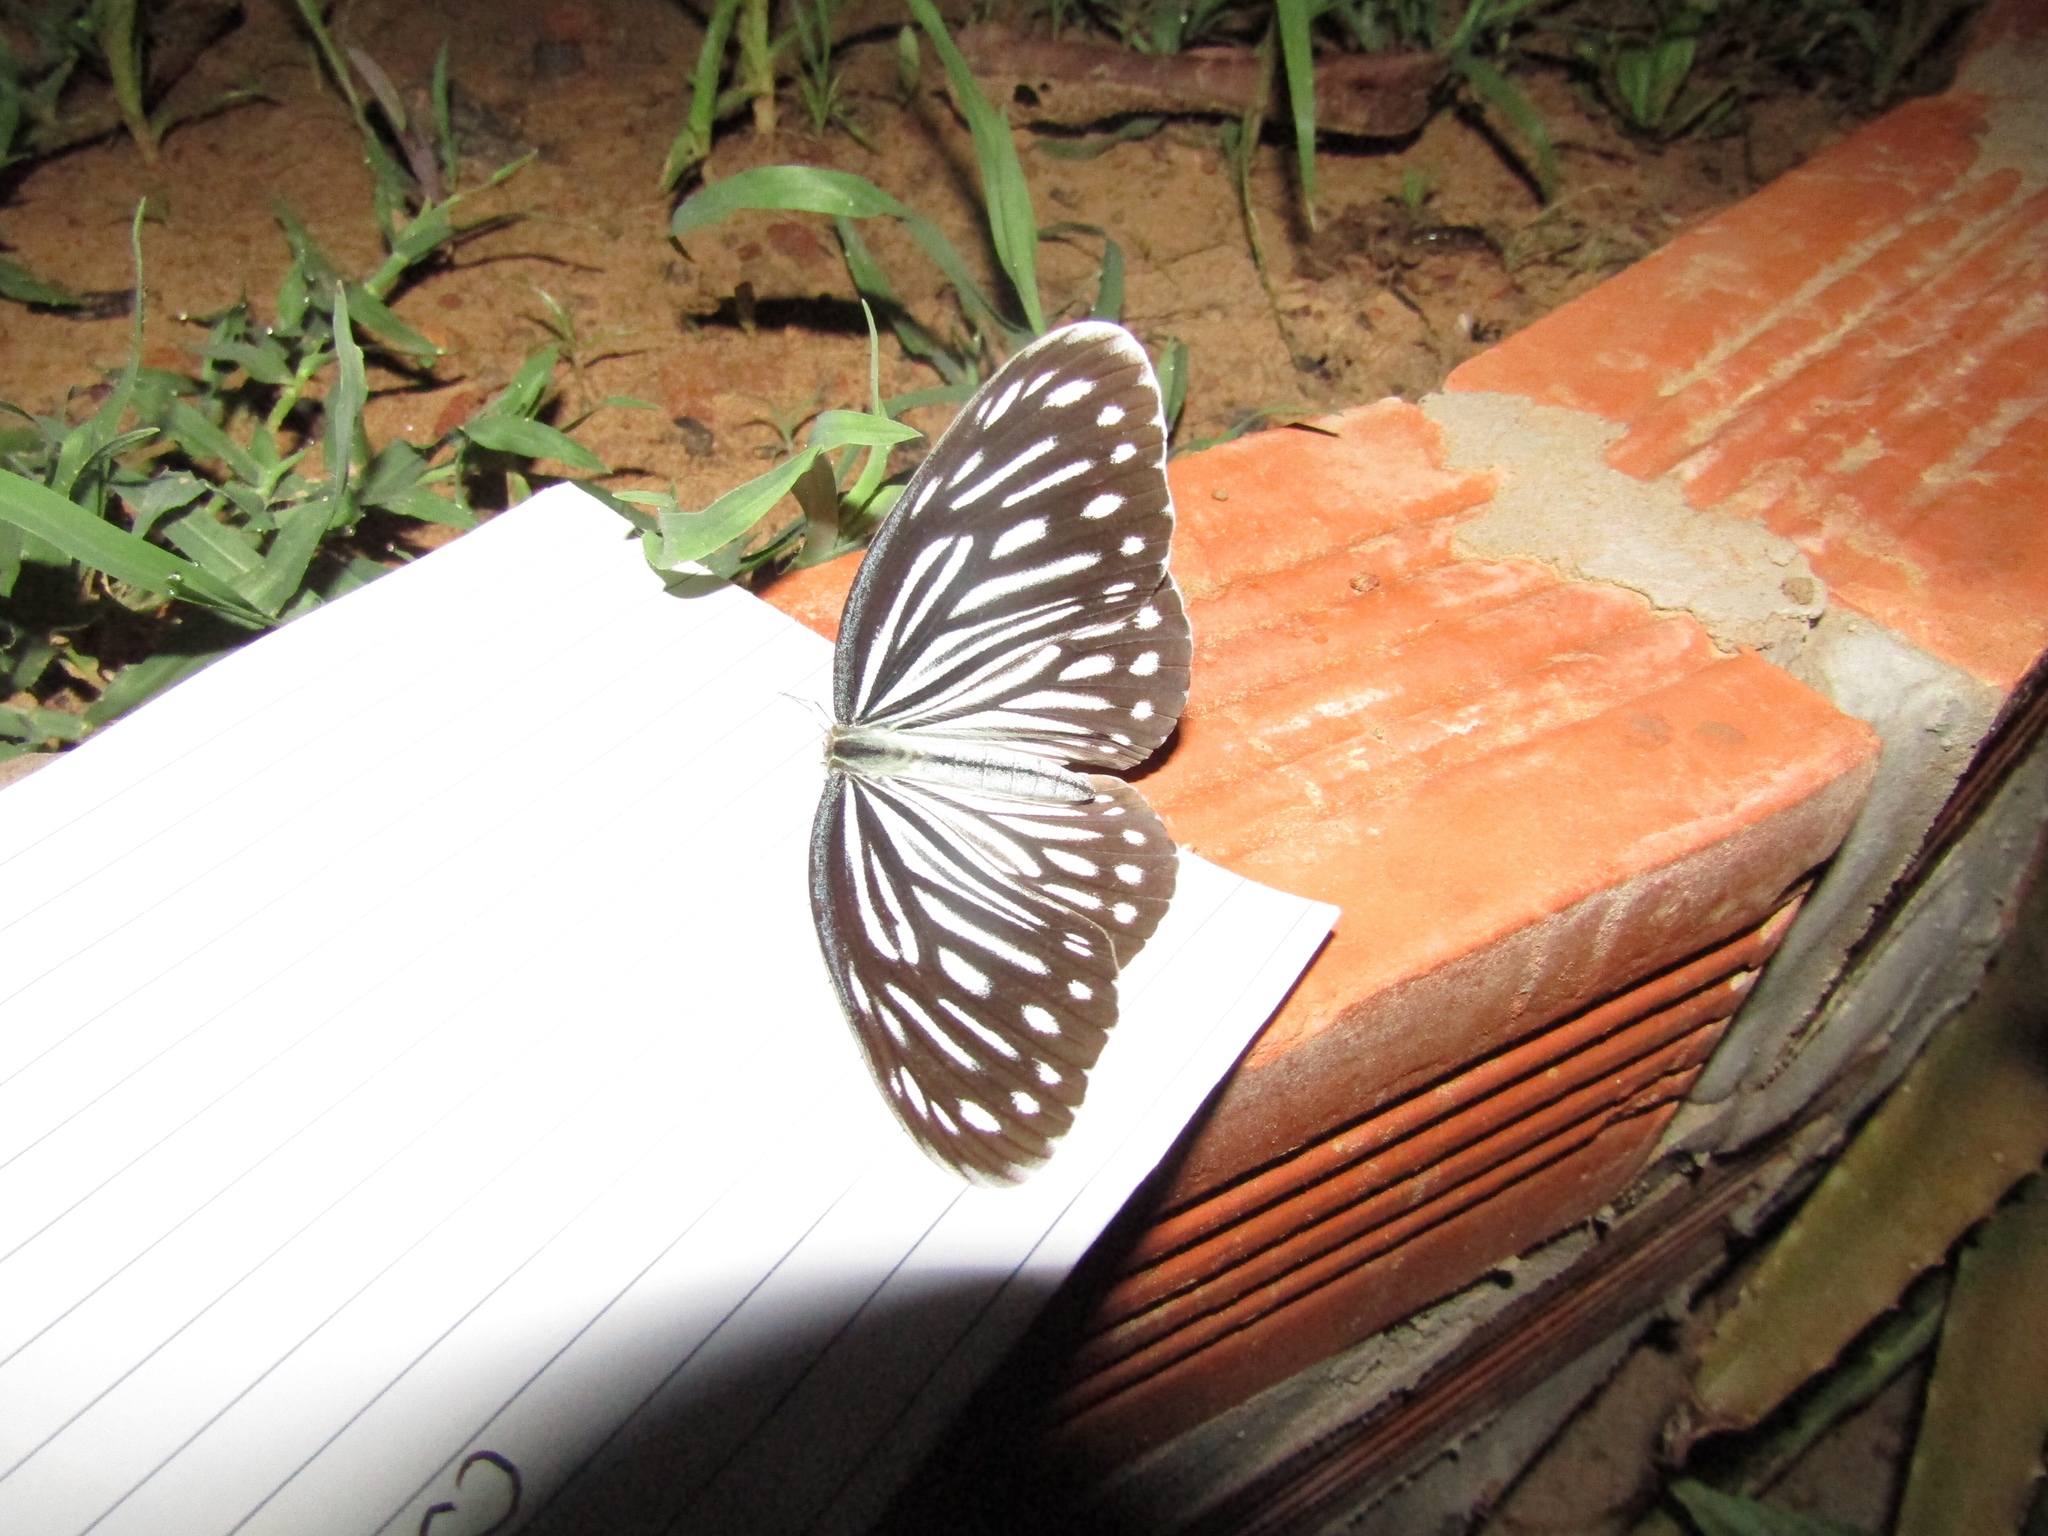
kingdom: Animalia
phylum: Arthropoda
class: Insecta
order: Lepidoptera
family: Pieridae
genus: Pareronia
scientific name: Pareronia hippia
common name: Indian wanderer
